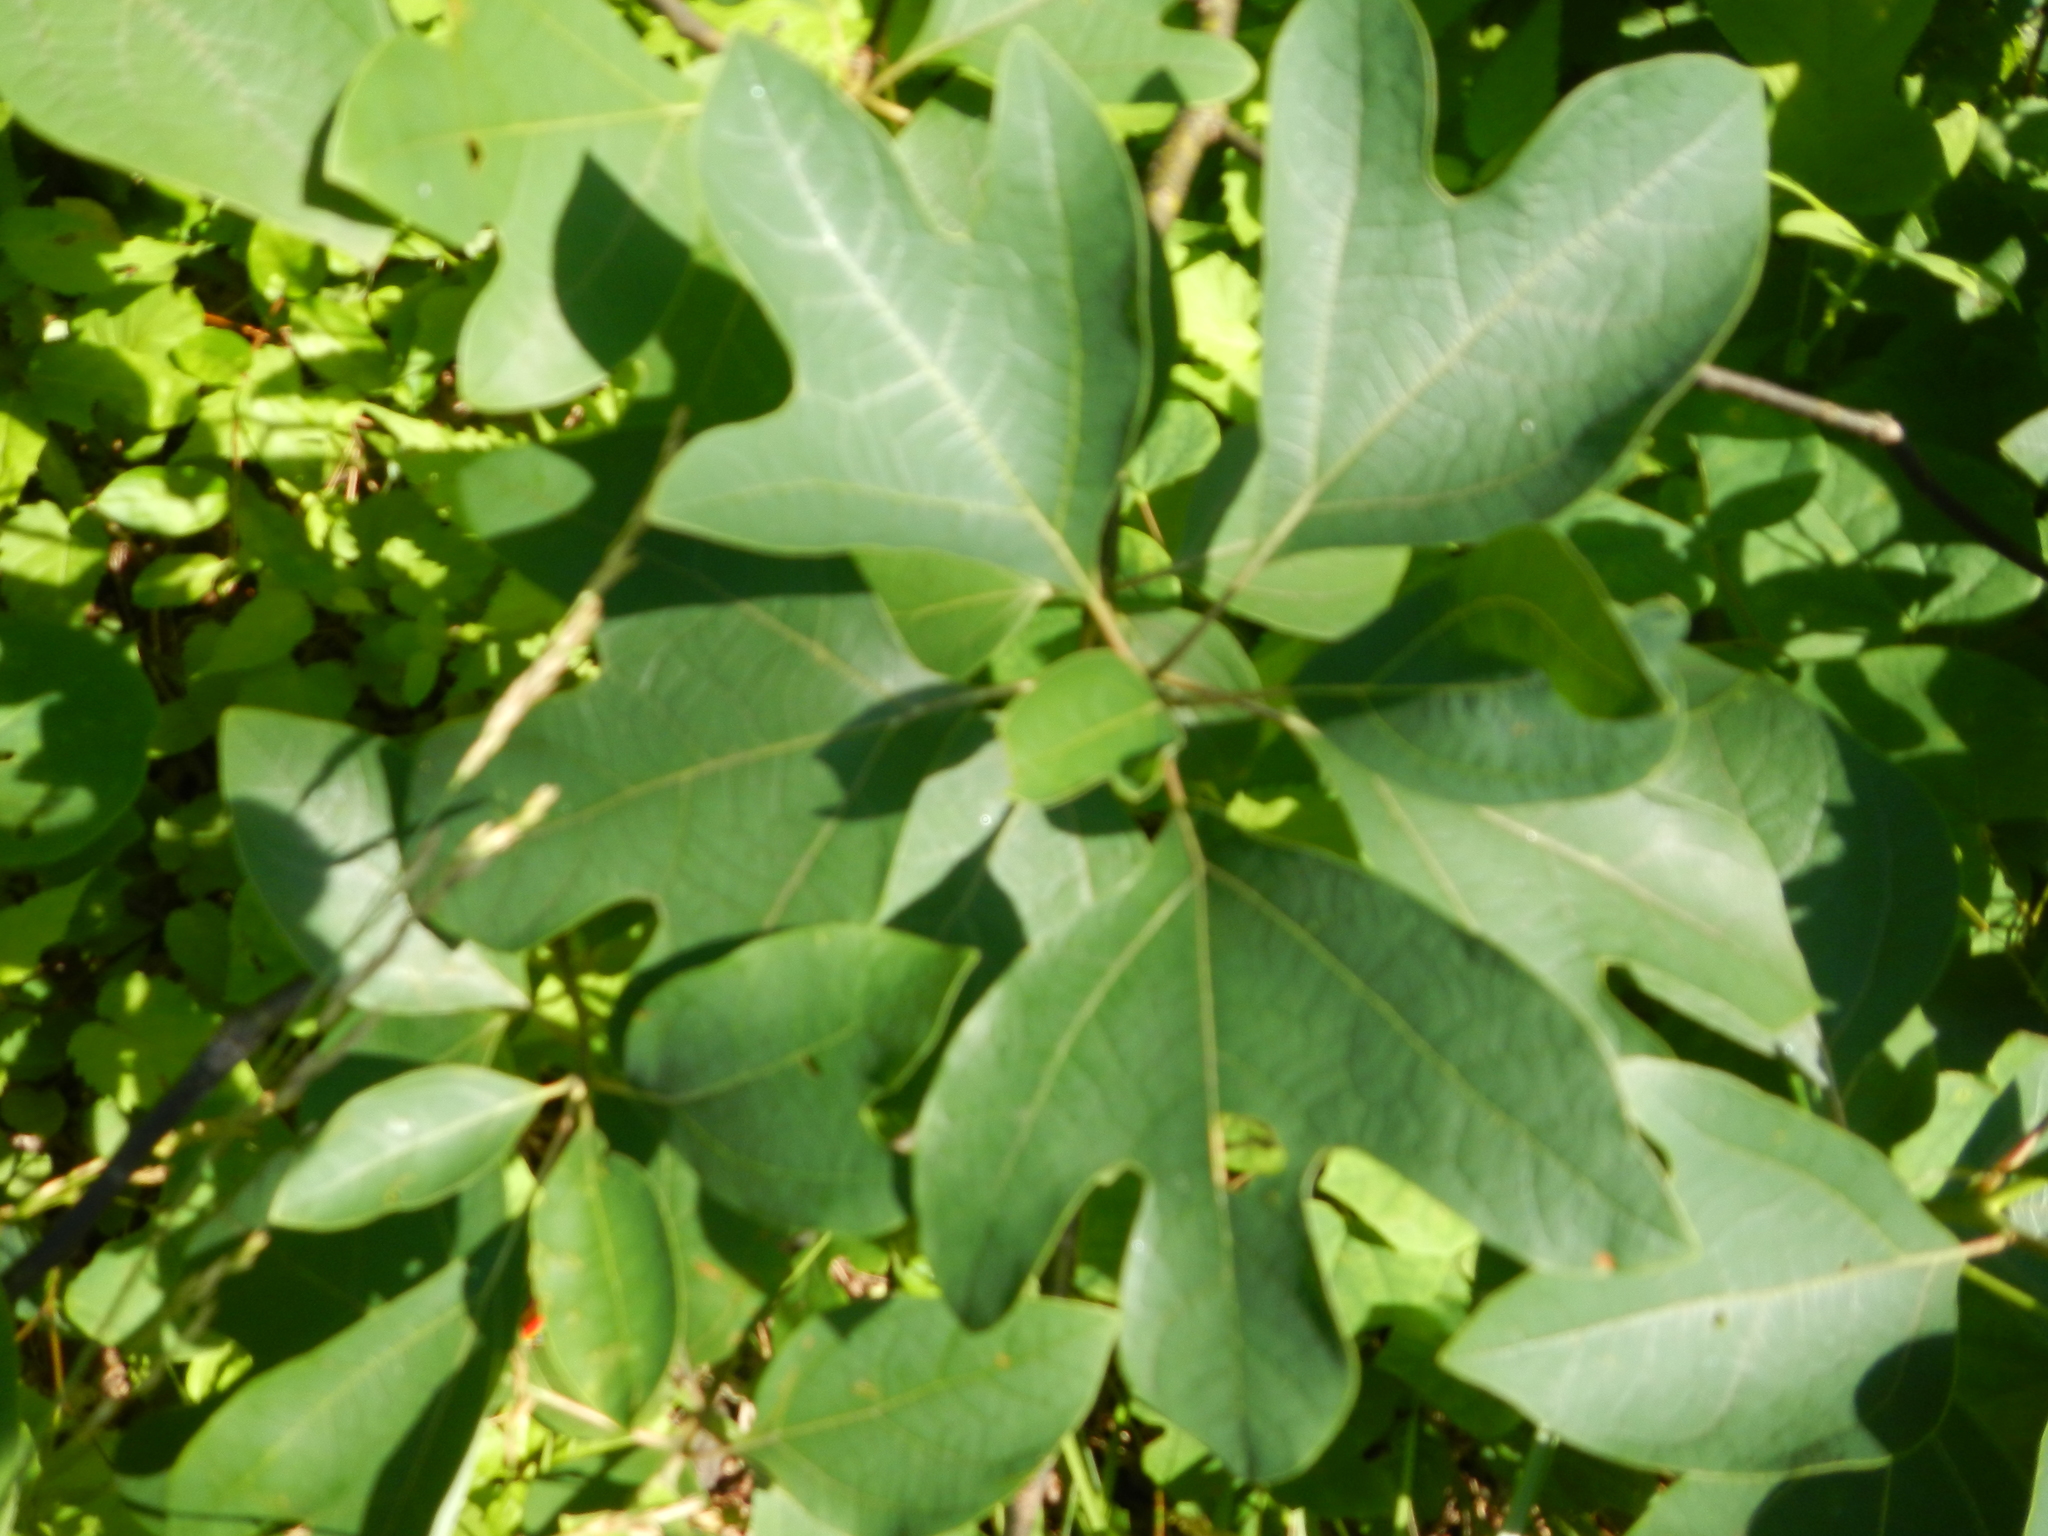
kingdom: Plantae
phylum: Tracheophyta
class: Magnoliopsida
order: Laurales
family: Lauraceae
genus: Sassafras
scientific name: Sassafras albidum
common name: Sassafras
